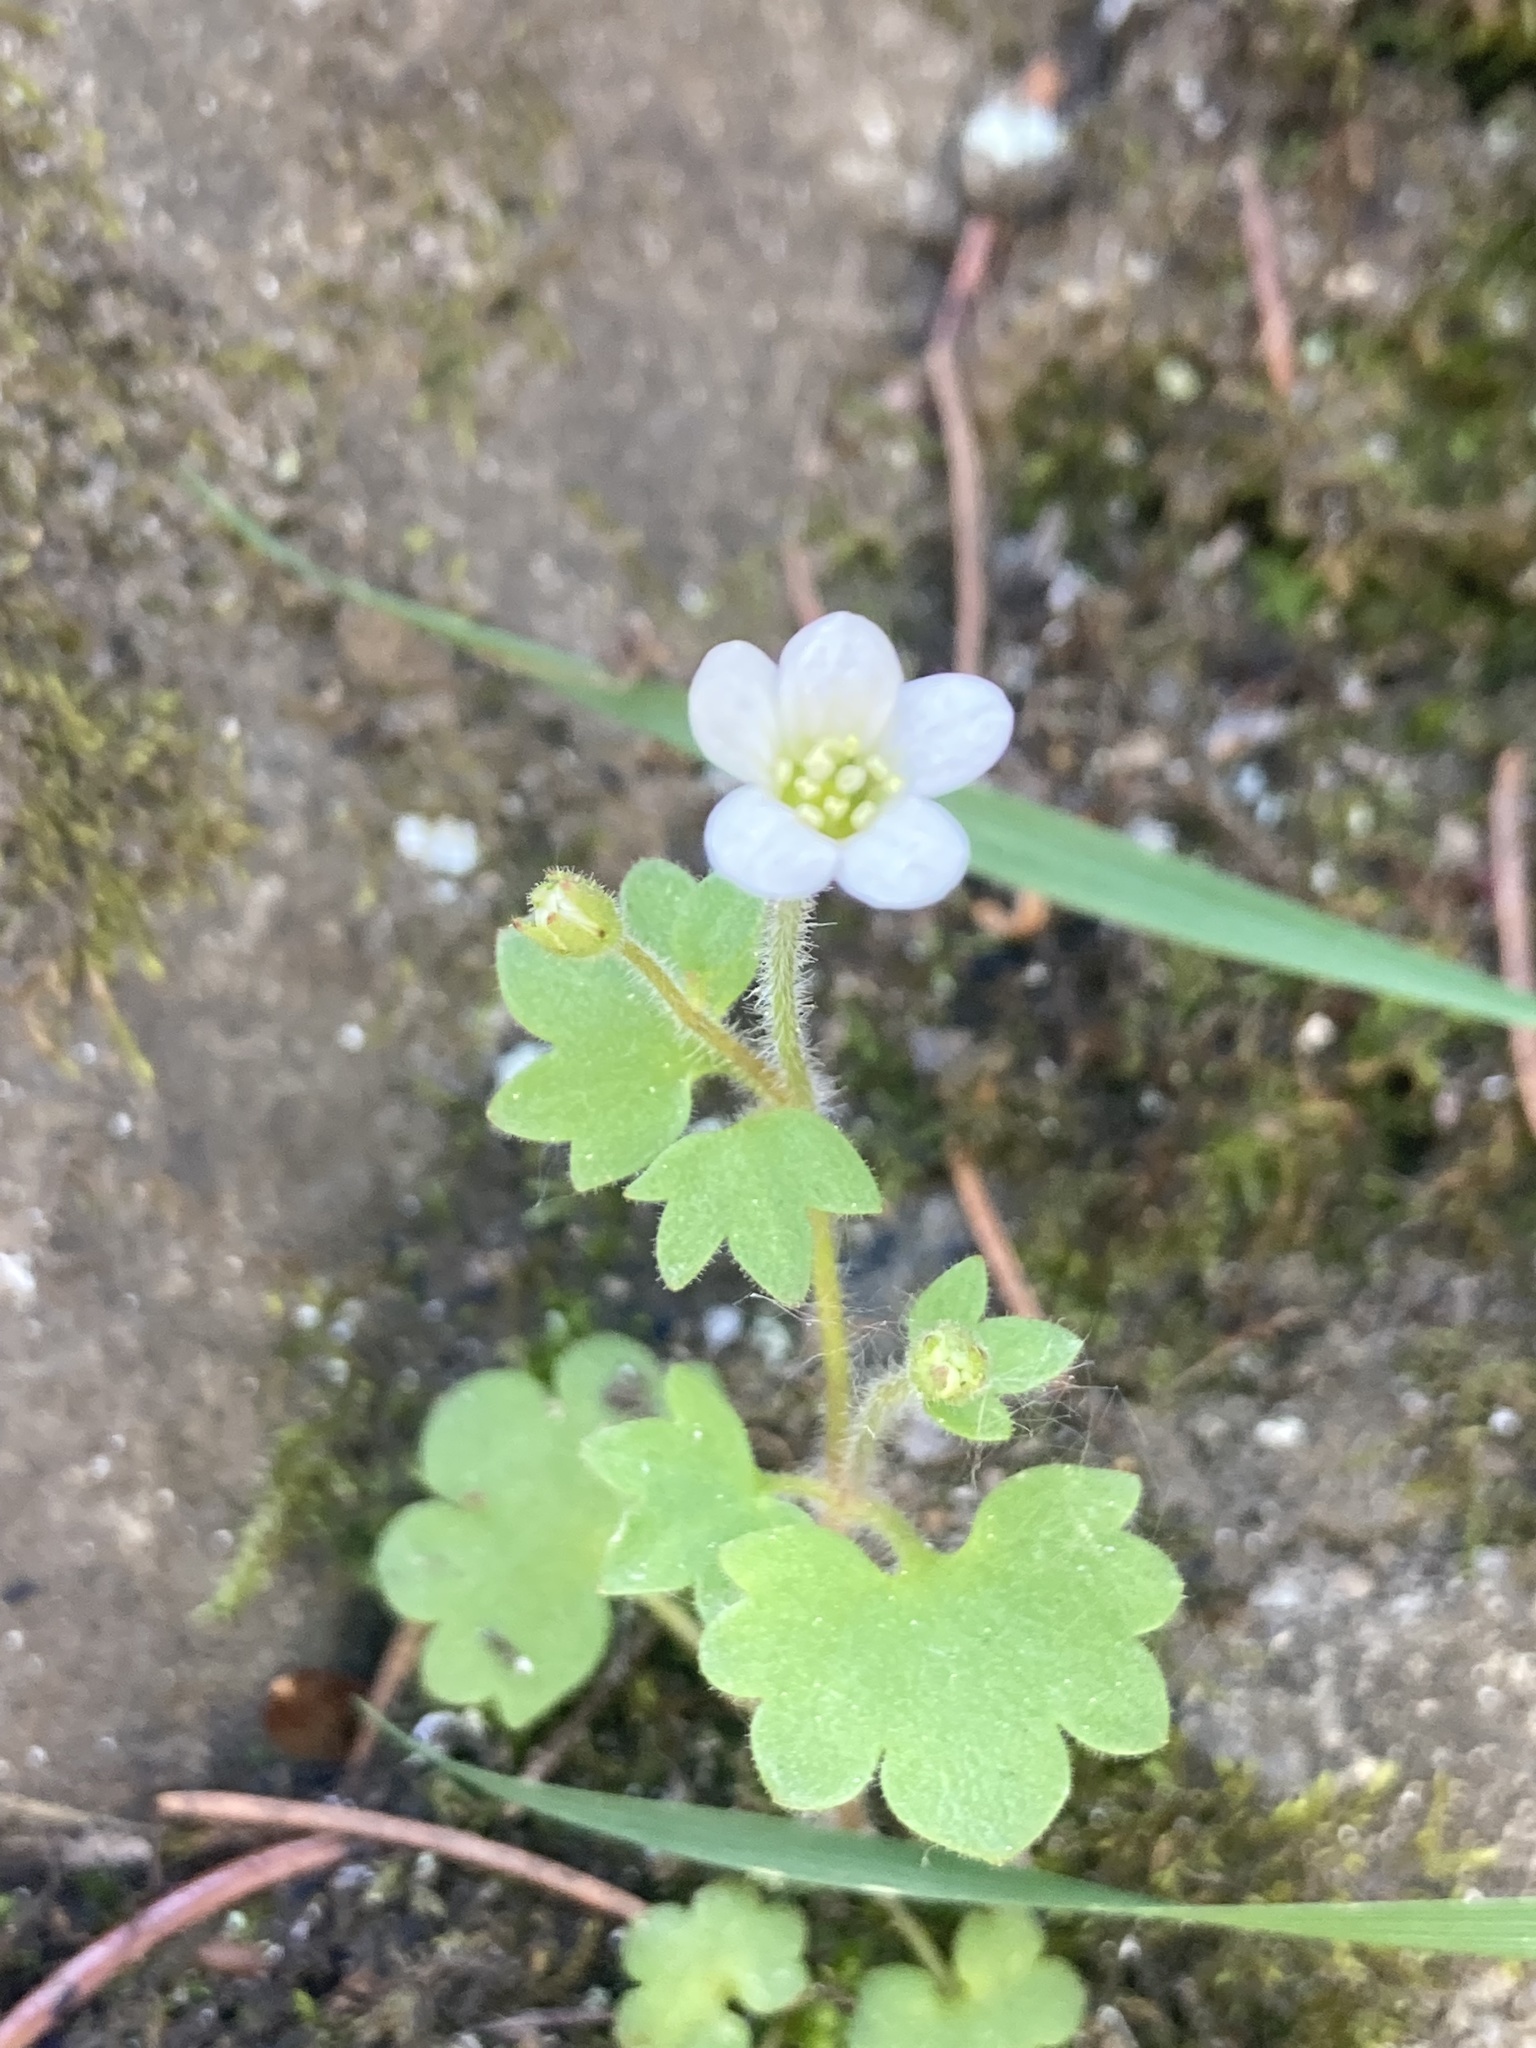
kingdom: Plantae
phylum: Tracheophyta
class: Magnoliopsida
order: Saxifragales
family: Saxifragaceae
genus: Saxifraga
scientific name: Saxifraga debilis
